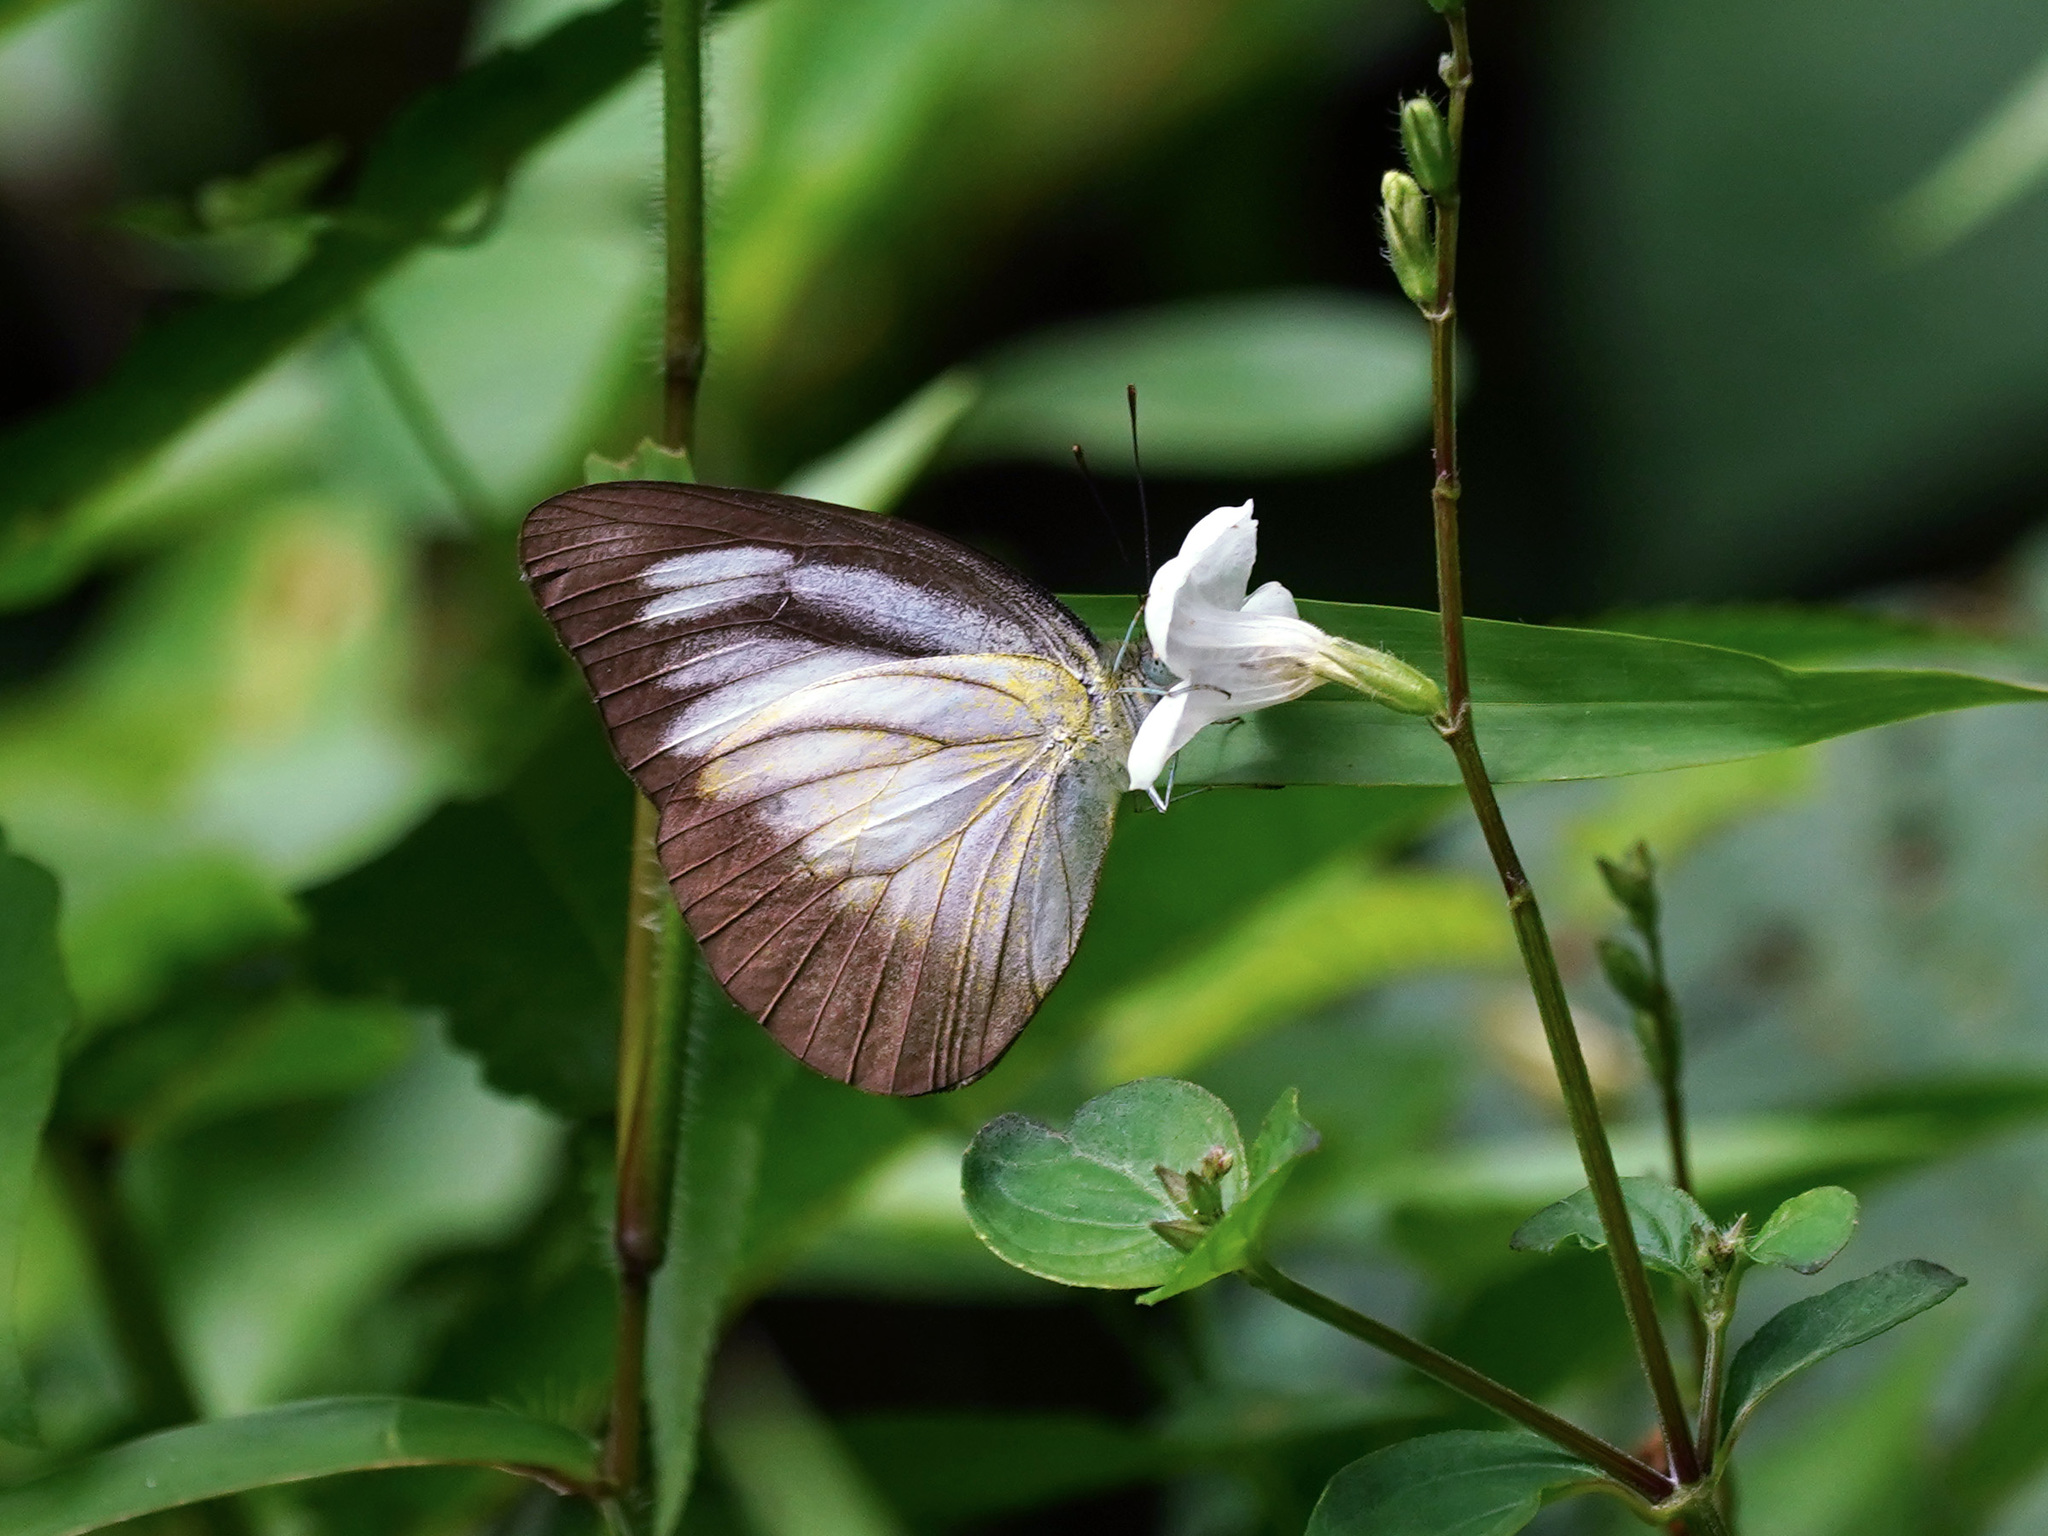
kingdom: Animalia
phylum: Arthropoda
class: Insecta
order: Lepidoptera
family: Pieridae
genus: Appias
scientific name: Appias lyncida
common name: Chocolate albatross
